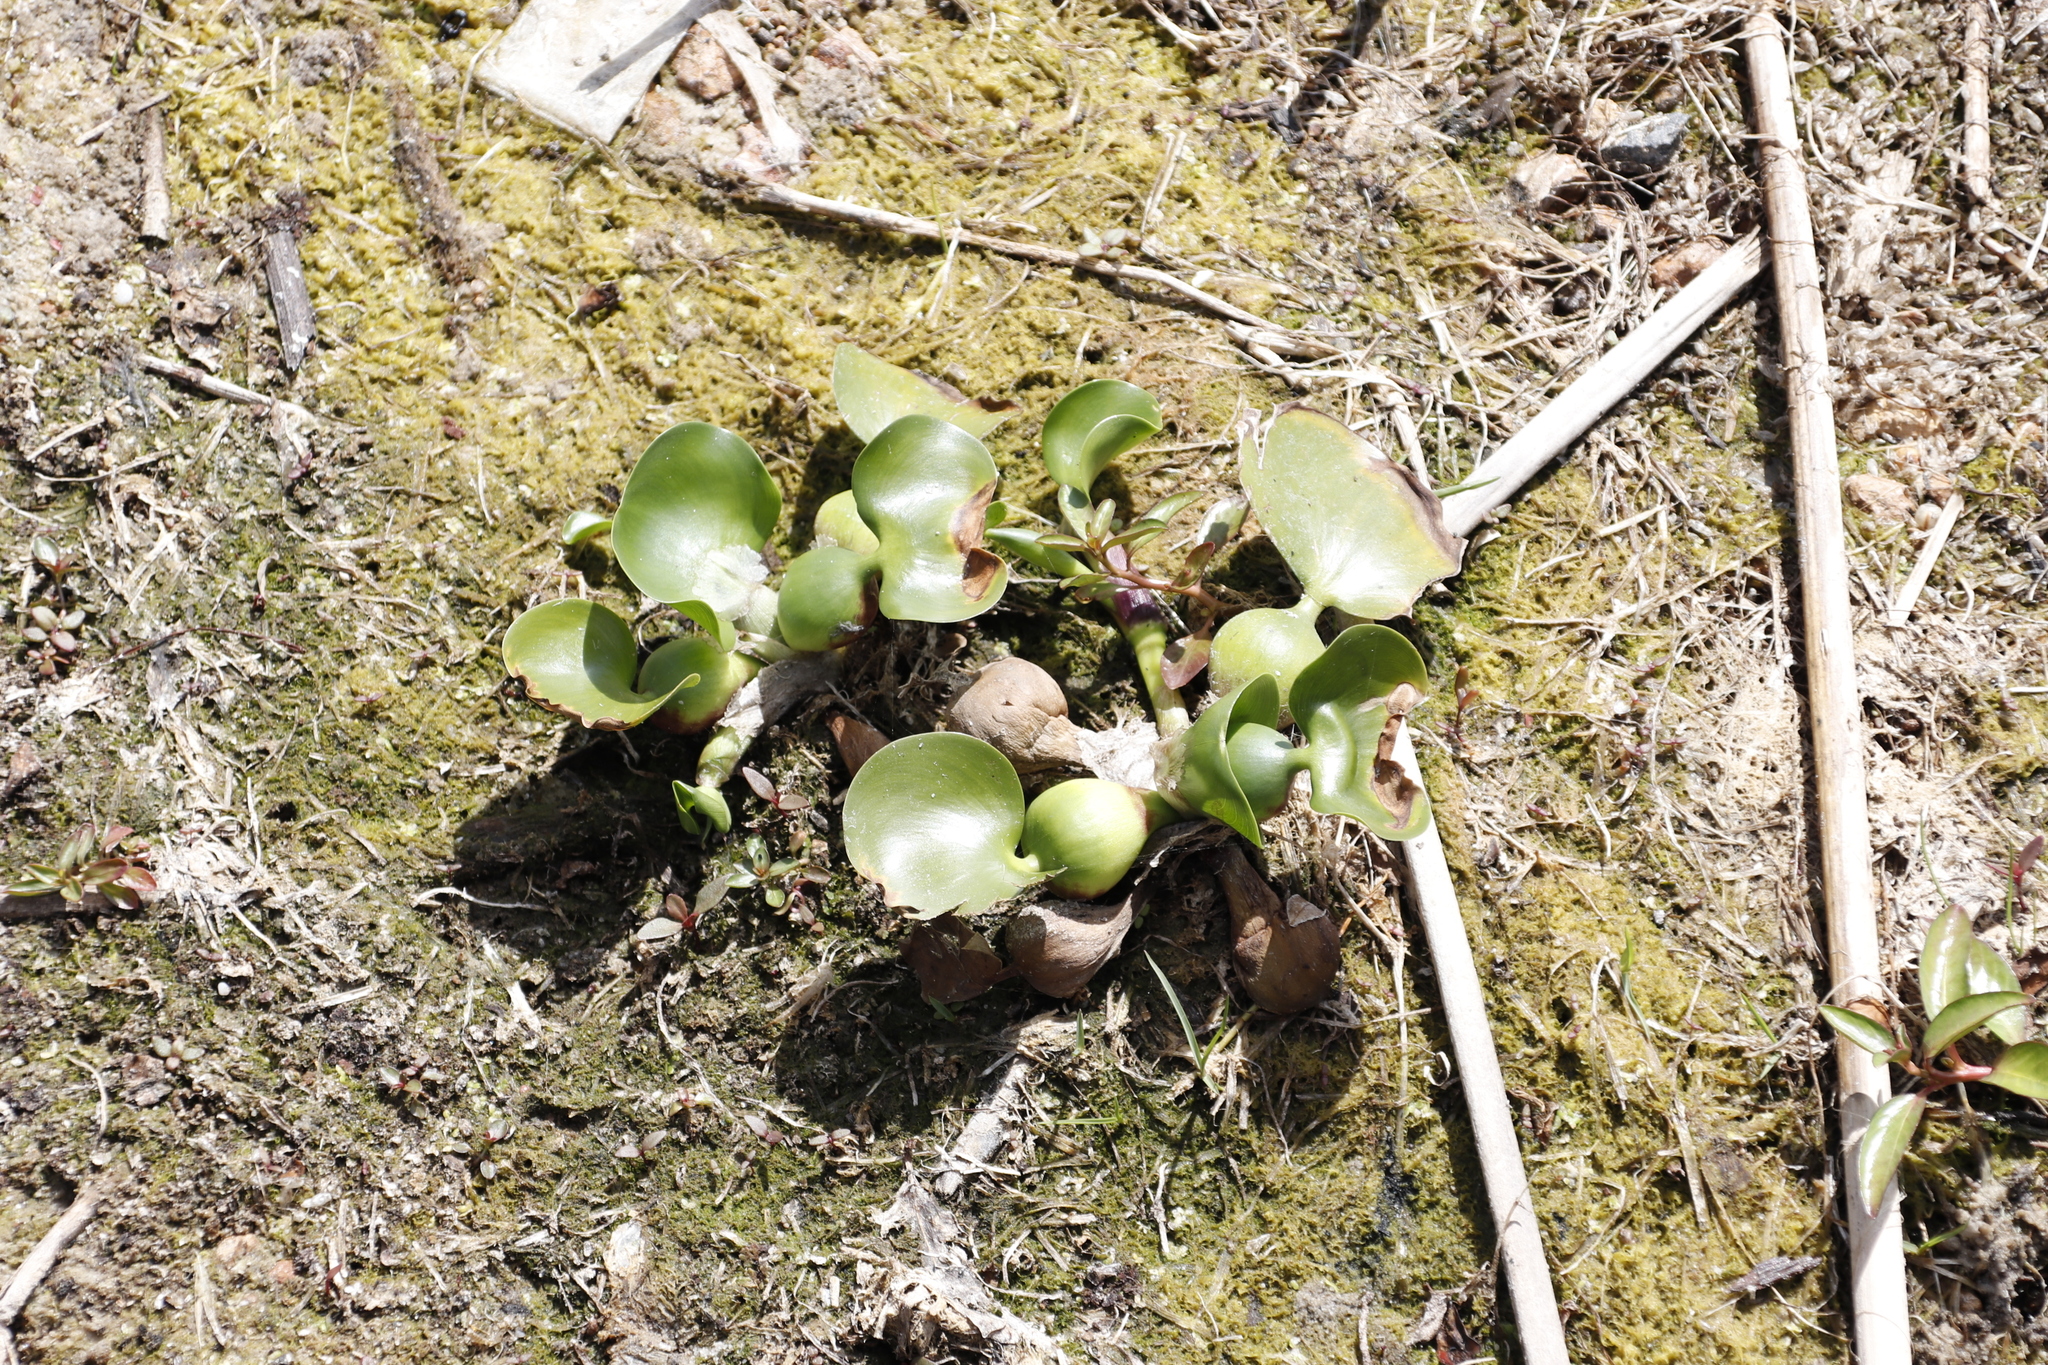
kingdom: Plantae
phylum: Tracheophyta
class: Liliopsida
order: Commelinales
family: Pontederiaceae
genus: Pontederia
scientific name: Pontederia crassipes
